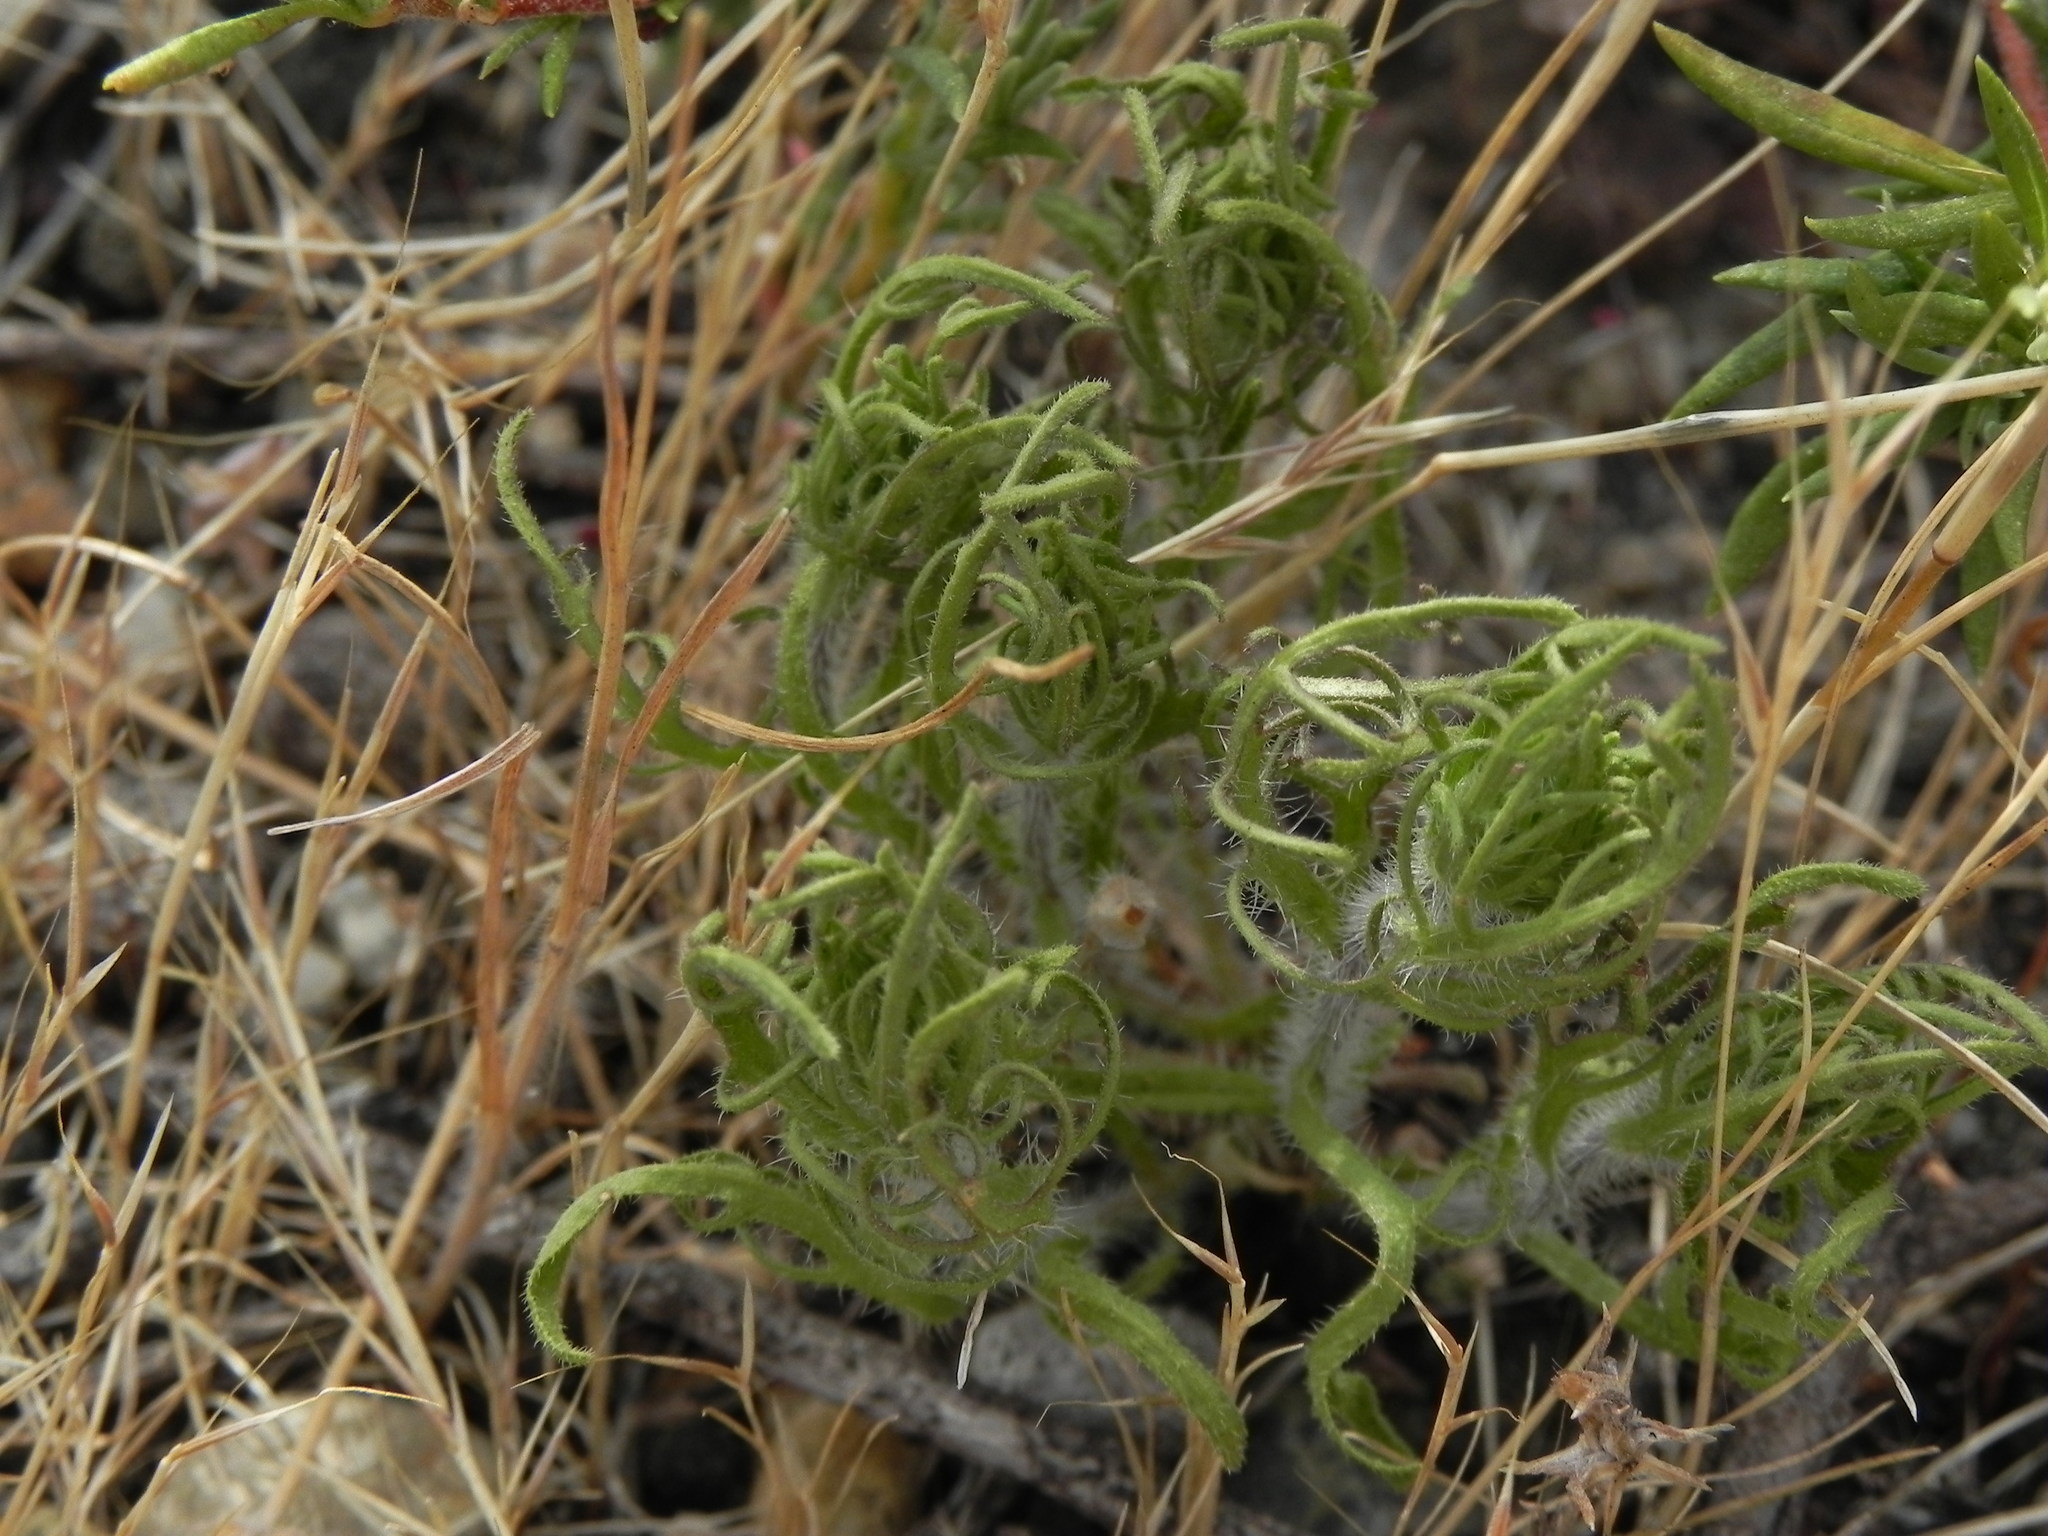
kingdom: Plantae
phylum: Tracheophyta
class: Magnoliopsida
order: Lamiales
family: Orobanchaceae
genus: Dicranostegia
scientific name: Dicranostegia orcuttiana
